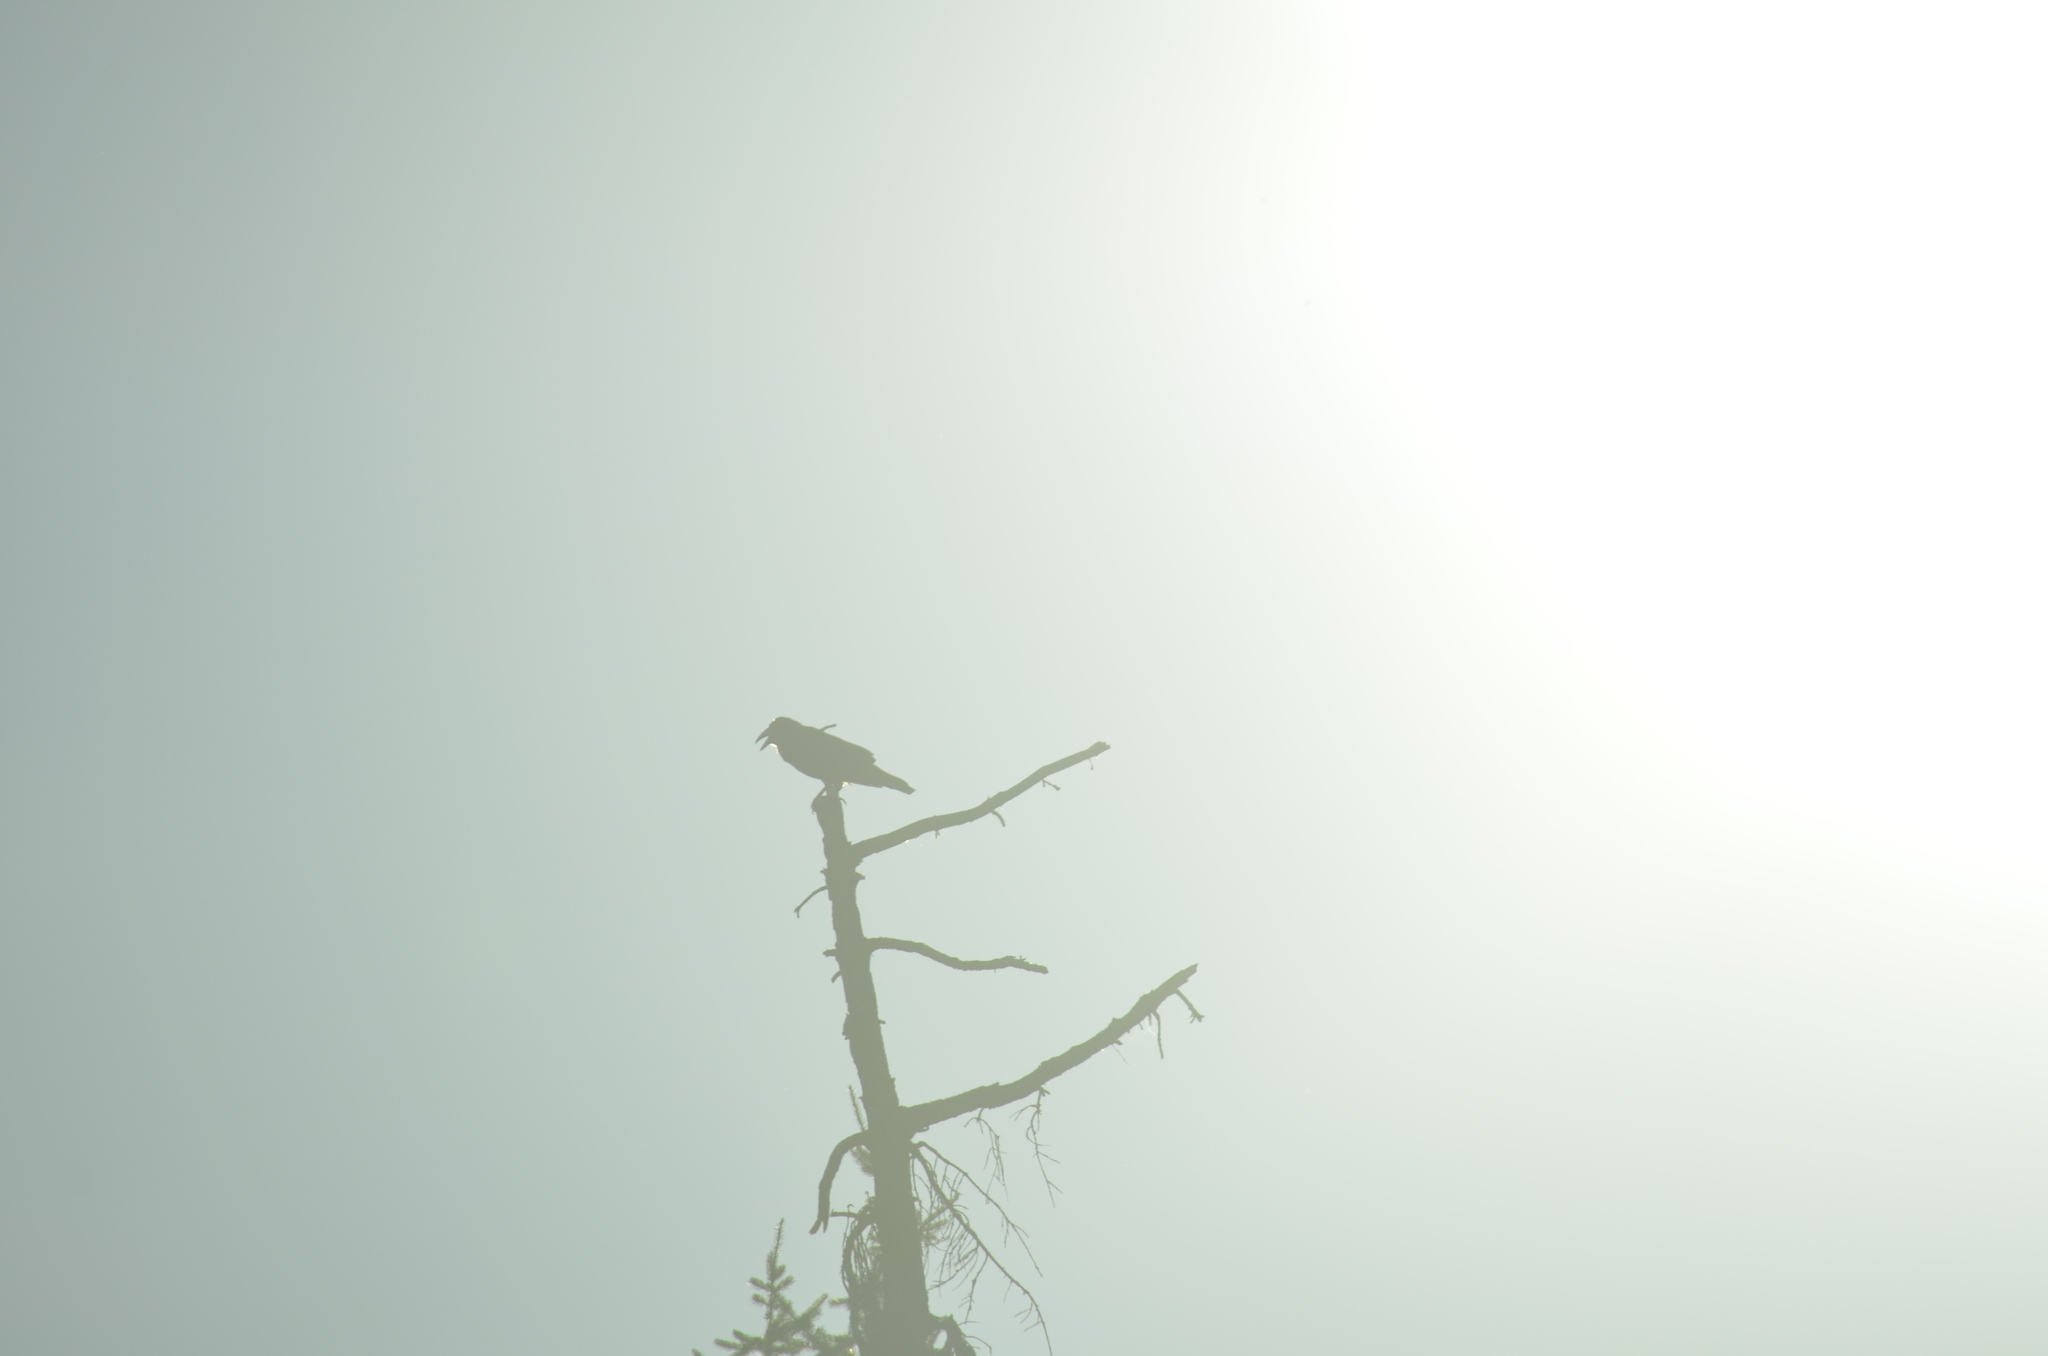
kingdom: Animalia
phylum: Chordata
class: Aves
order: Passeriformes
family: Corvidae
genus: Corvus
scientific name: Corvus corax
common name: Common raven
